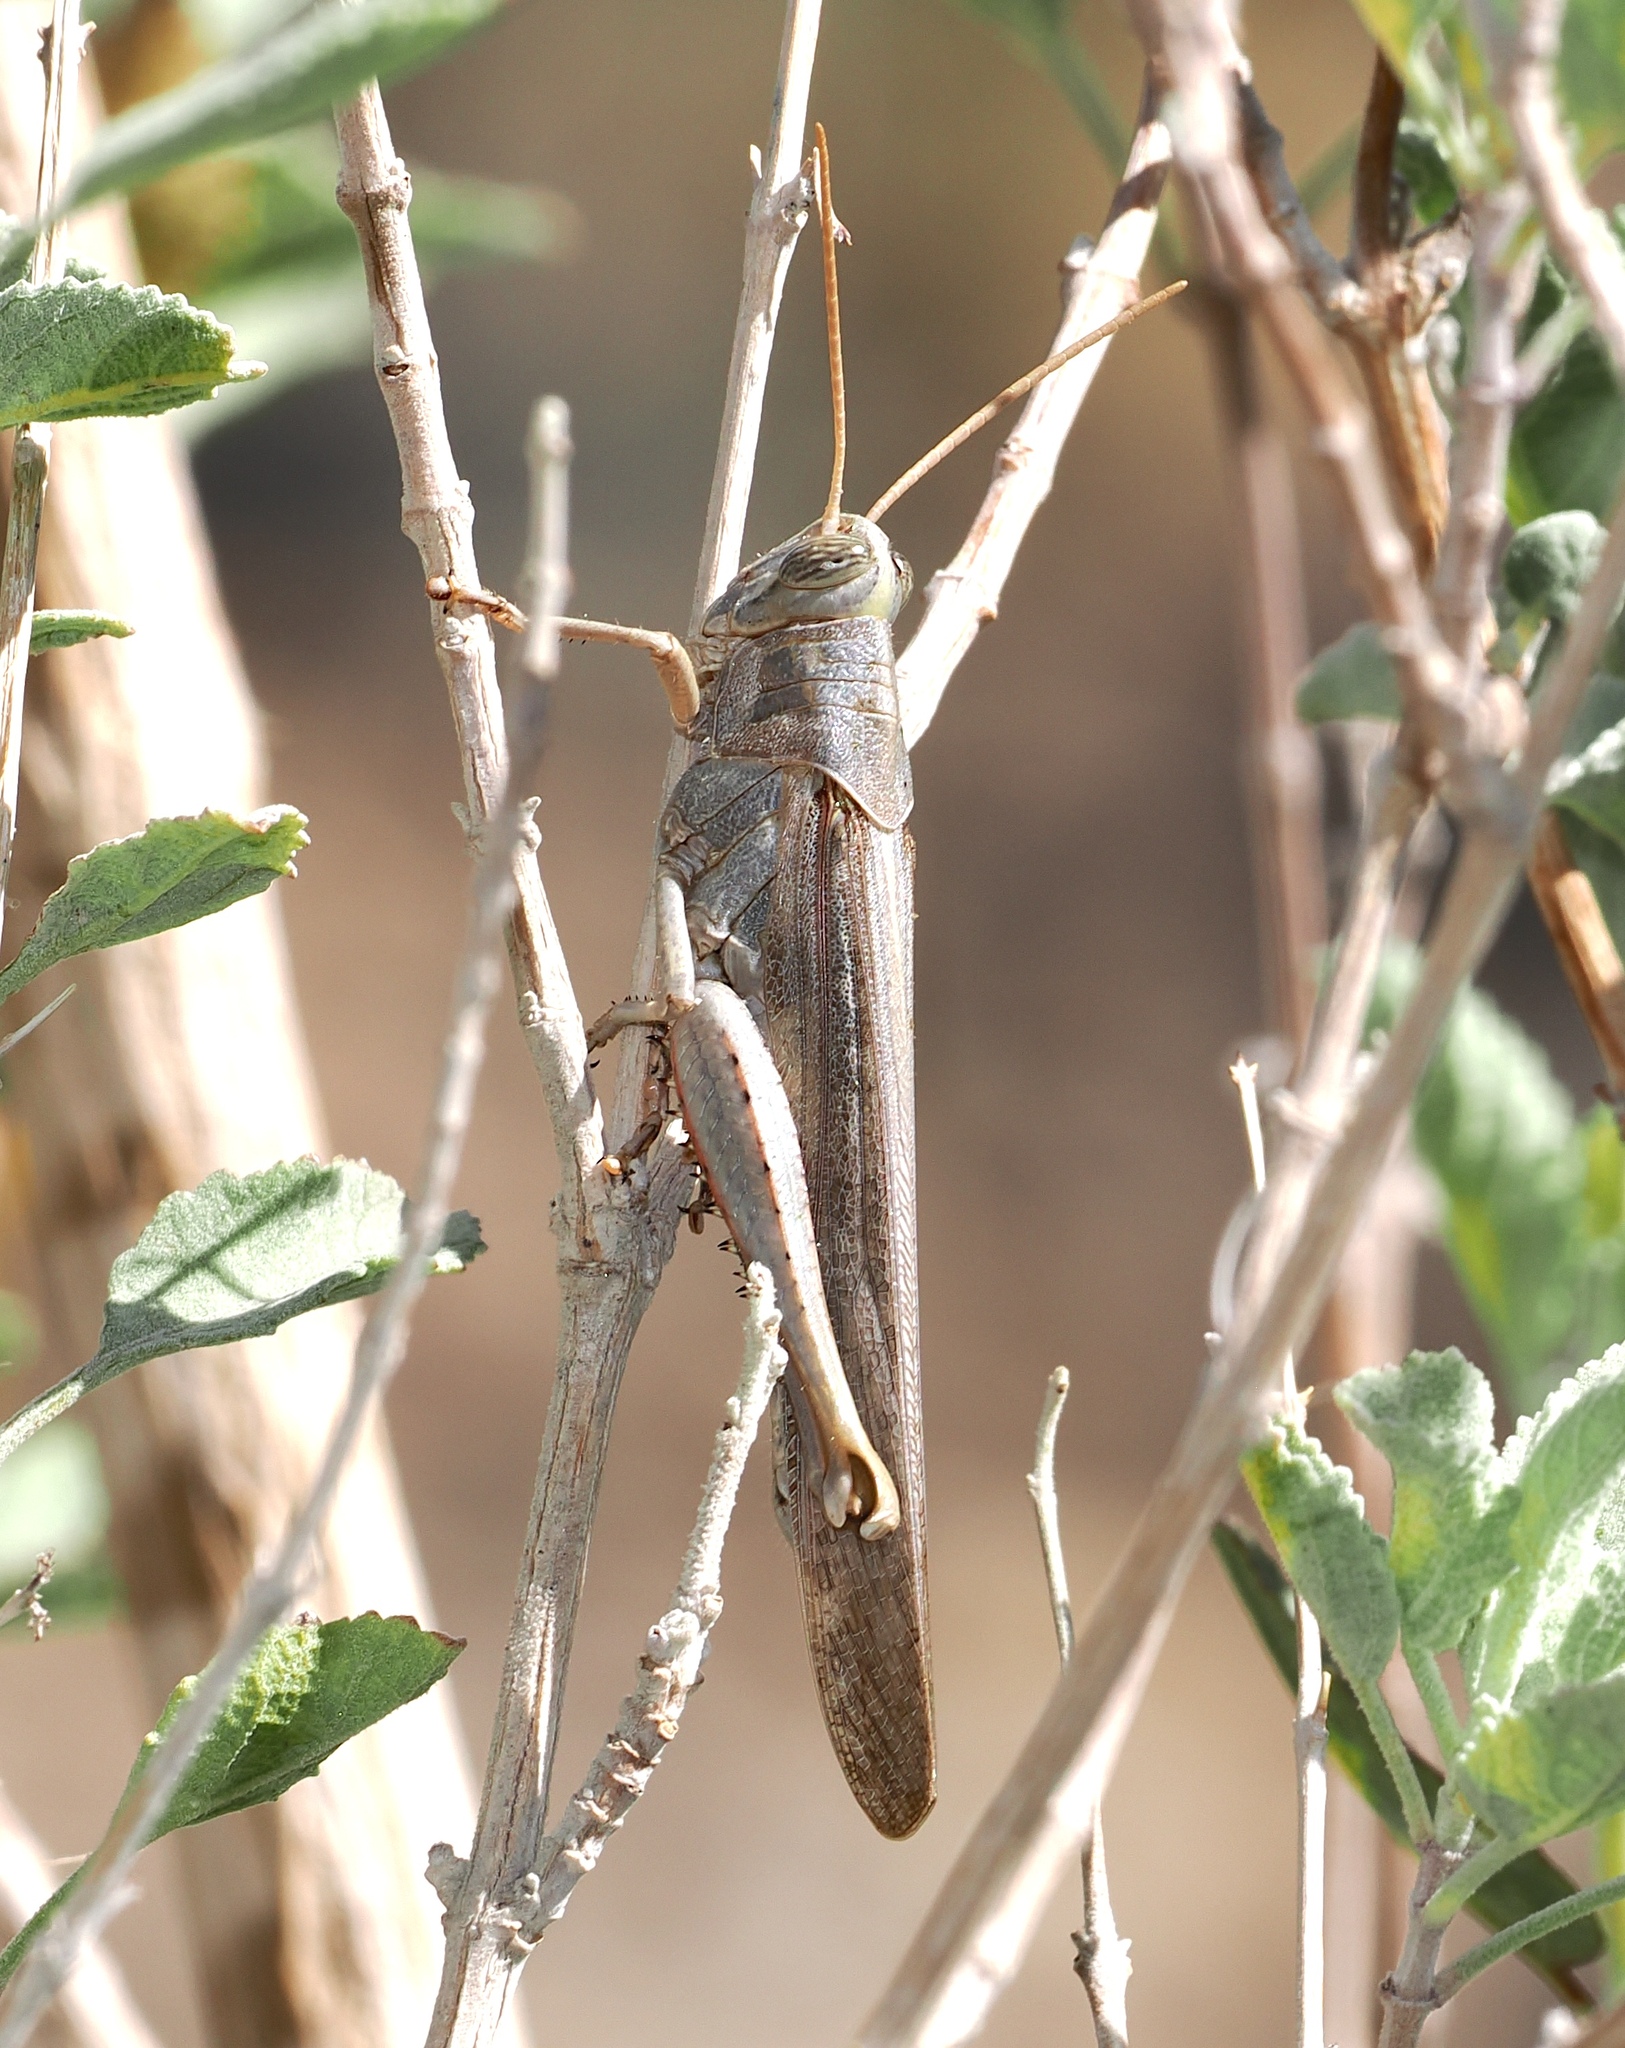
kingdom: Animalia
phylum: Arthropoda
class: Insecta
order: Orthoptera
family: Acrididae
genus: Schistocerca
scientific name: Schistocerca nitens
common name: Vagrant grasshopper
